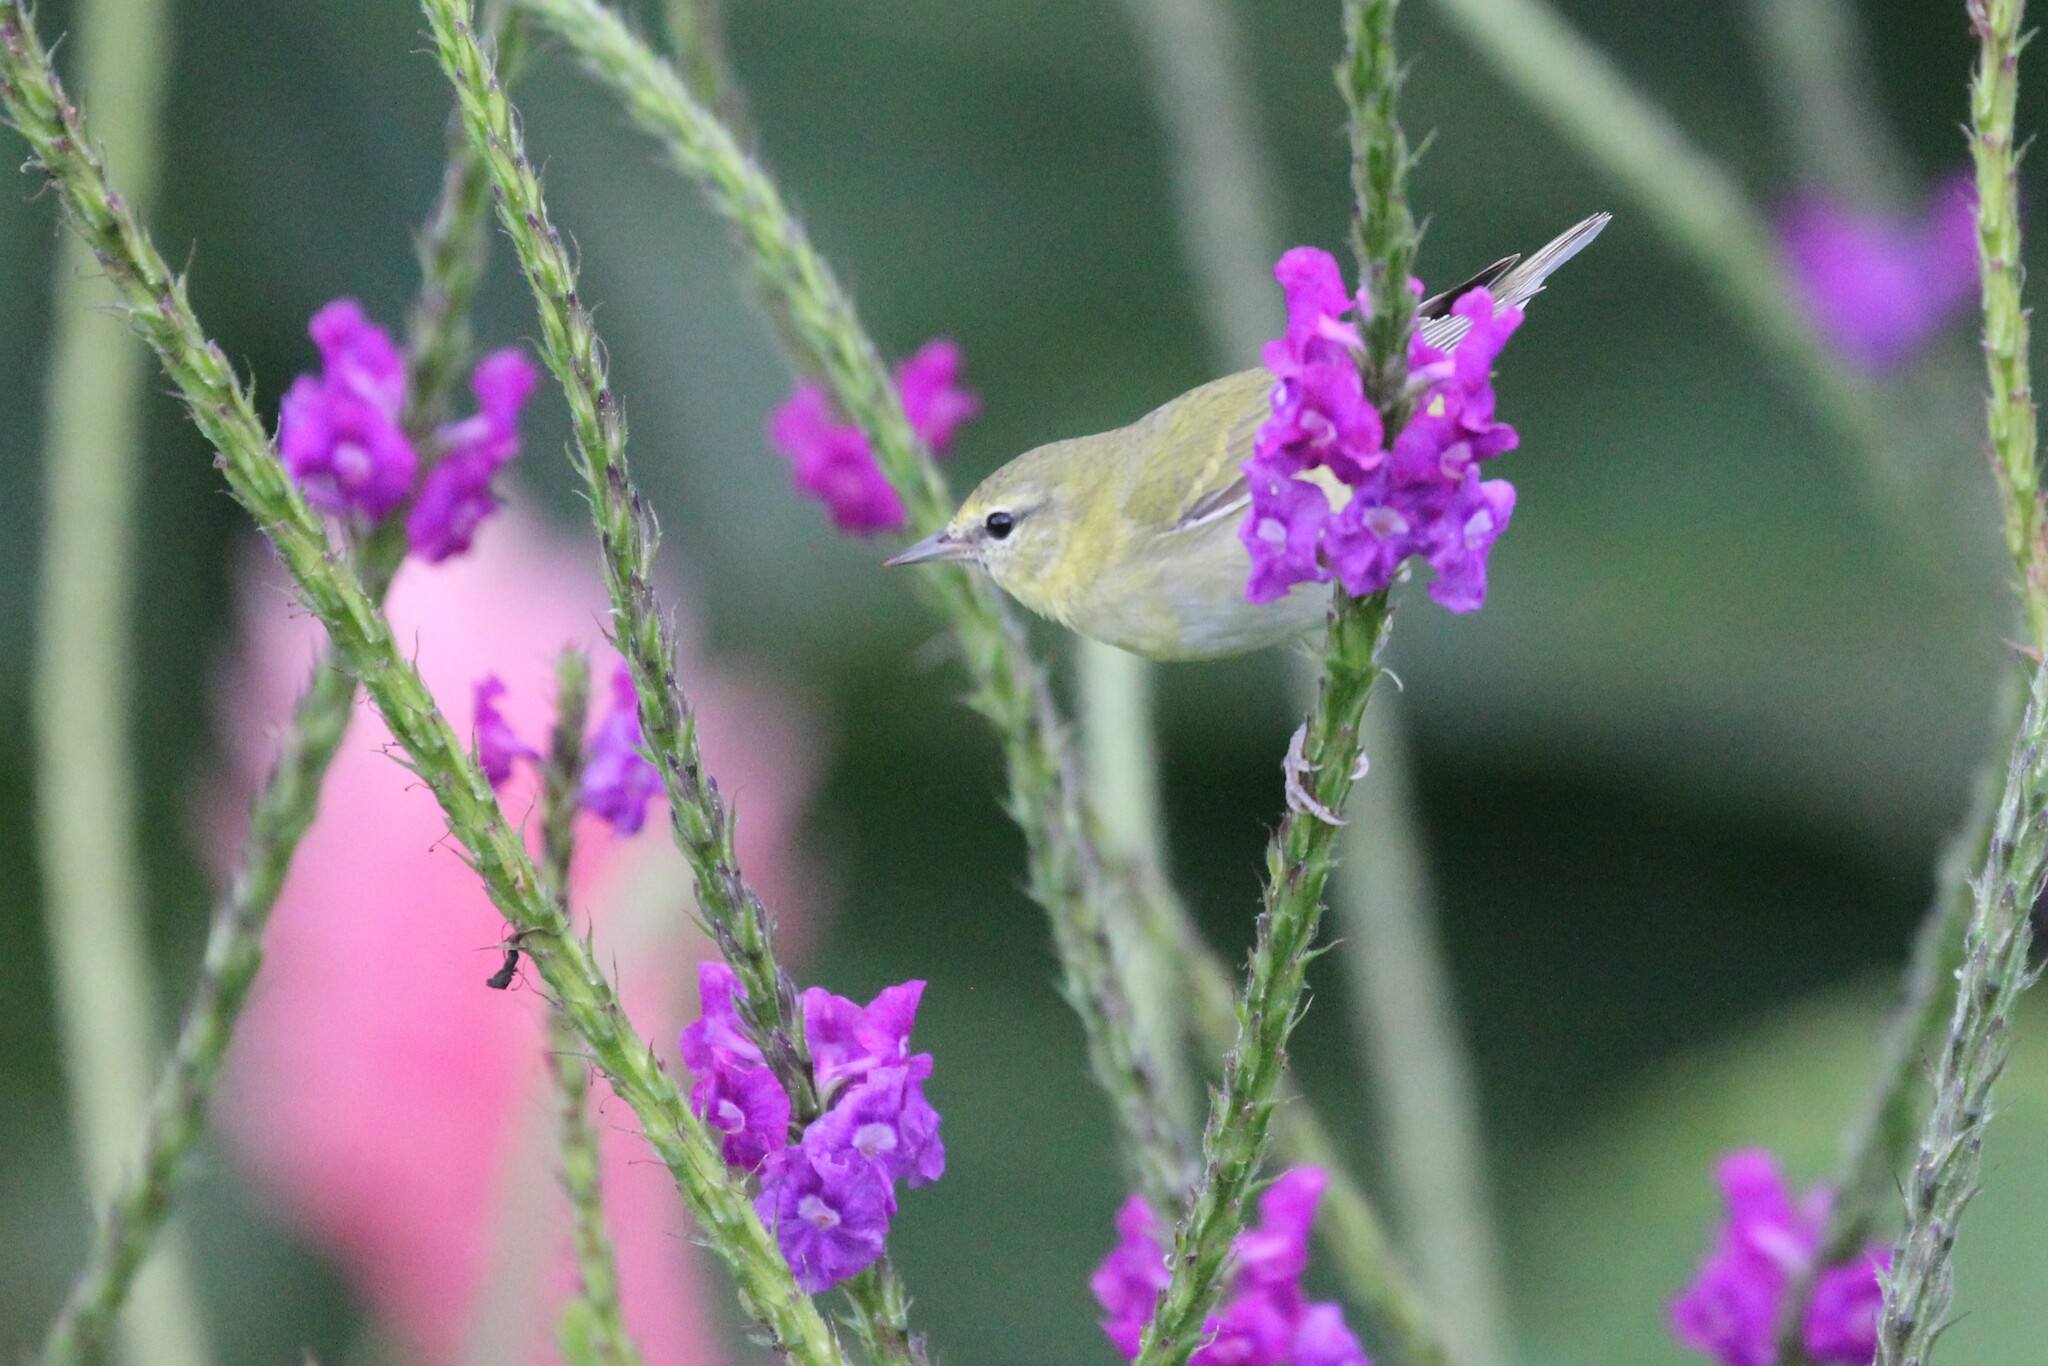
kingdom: Animalia
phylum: Chordata
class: Aves
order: Passeriformes
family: Parulidae
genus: Leiothlypis
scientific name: Leiothlypis peregrina
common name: Tennessee warbler
